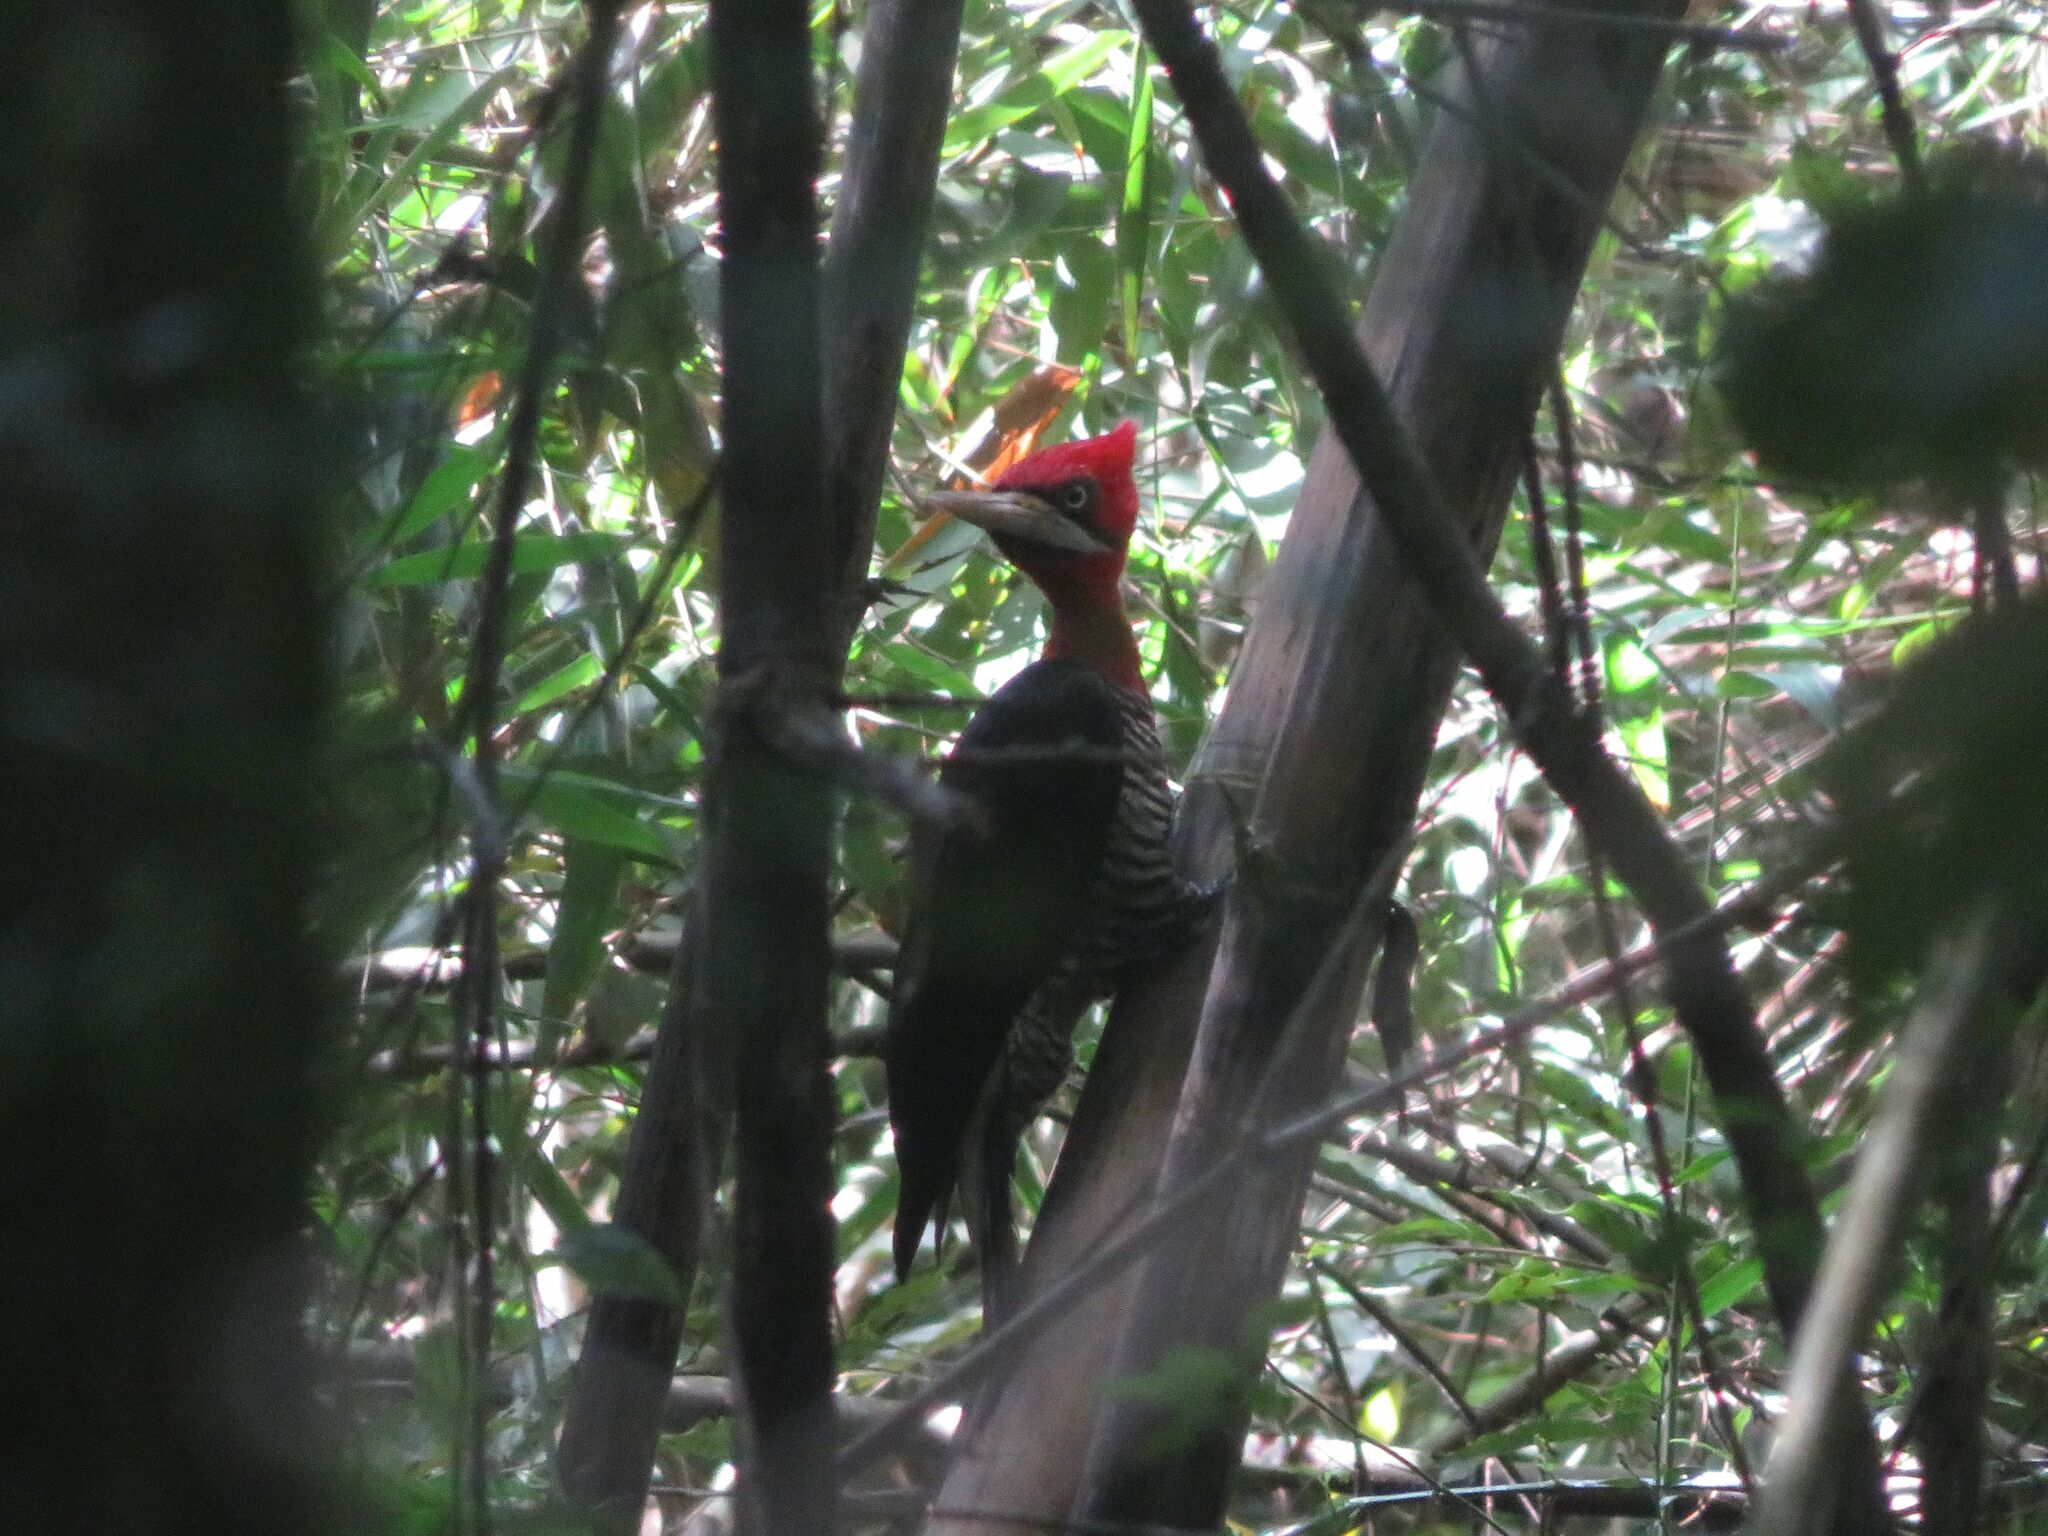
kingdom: Animalia
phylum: Chordata
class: Aves
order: Piciformes
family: Picidae
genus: Campephilus
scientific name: Campephilus robustus
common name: Robust woodpecker
